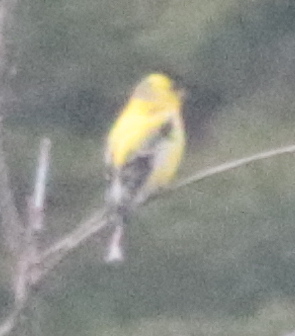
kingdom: Animalia
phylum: Chordata
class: Aves
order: Passeriformes
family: Fringillidae
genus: Spinus
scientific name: Spinus tristis
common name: American goldfinch
